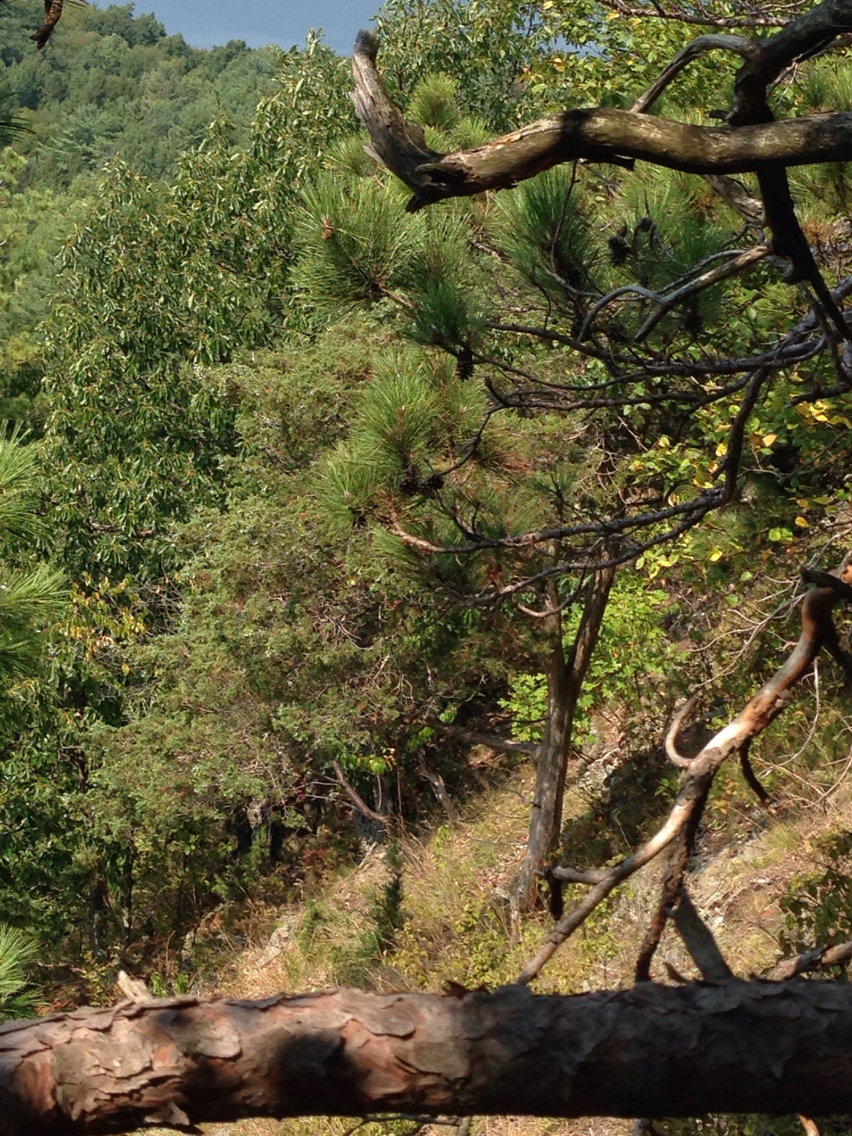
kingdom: Plantae
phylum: Tracheophyta
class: Pinopsida
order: Pinales
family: Cupressaceae
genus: Juniperus
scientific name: Juniperus virginiana
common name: Red juniper
